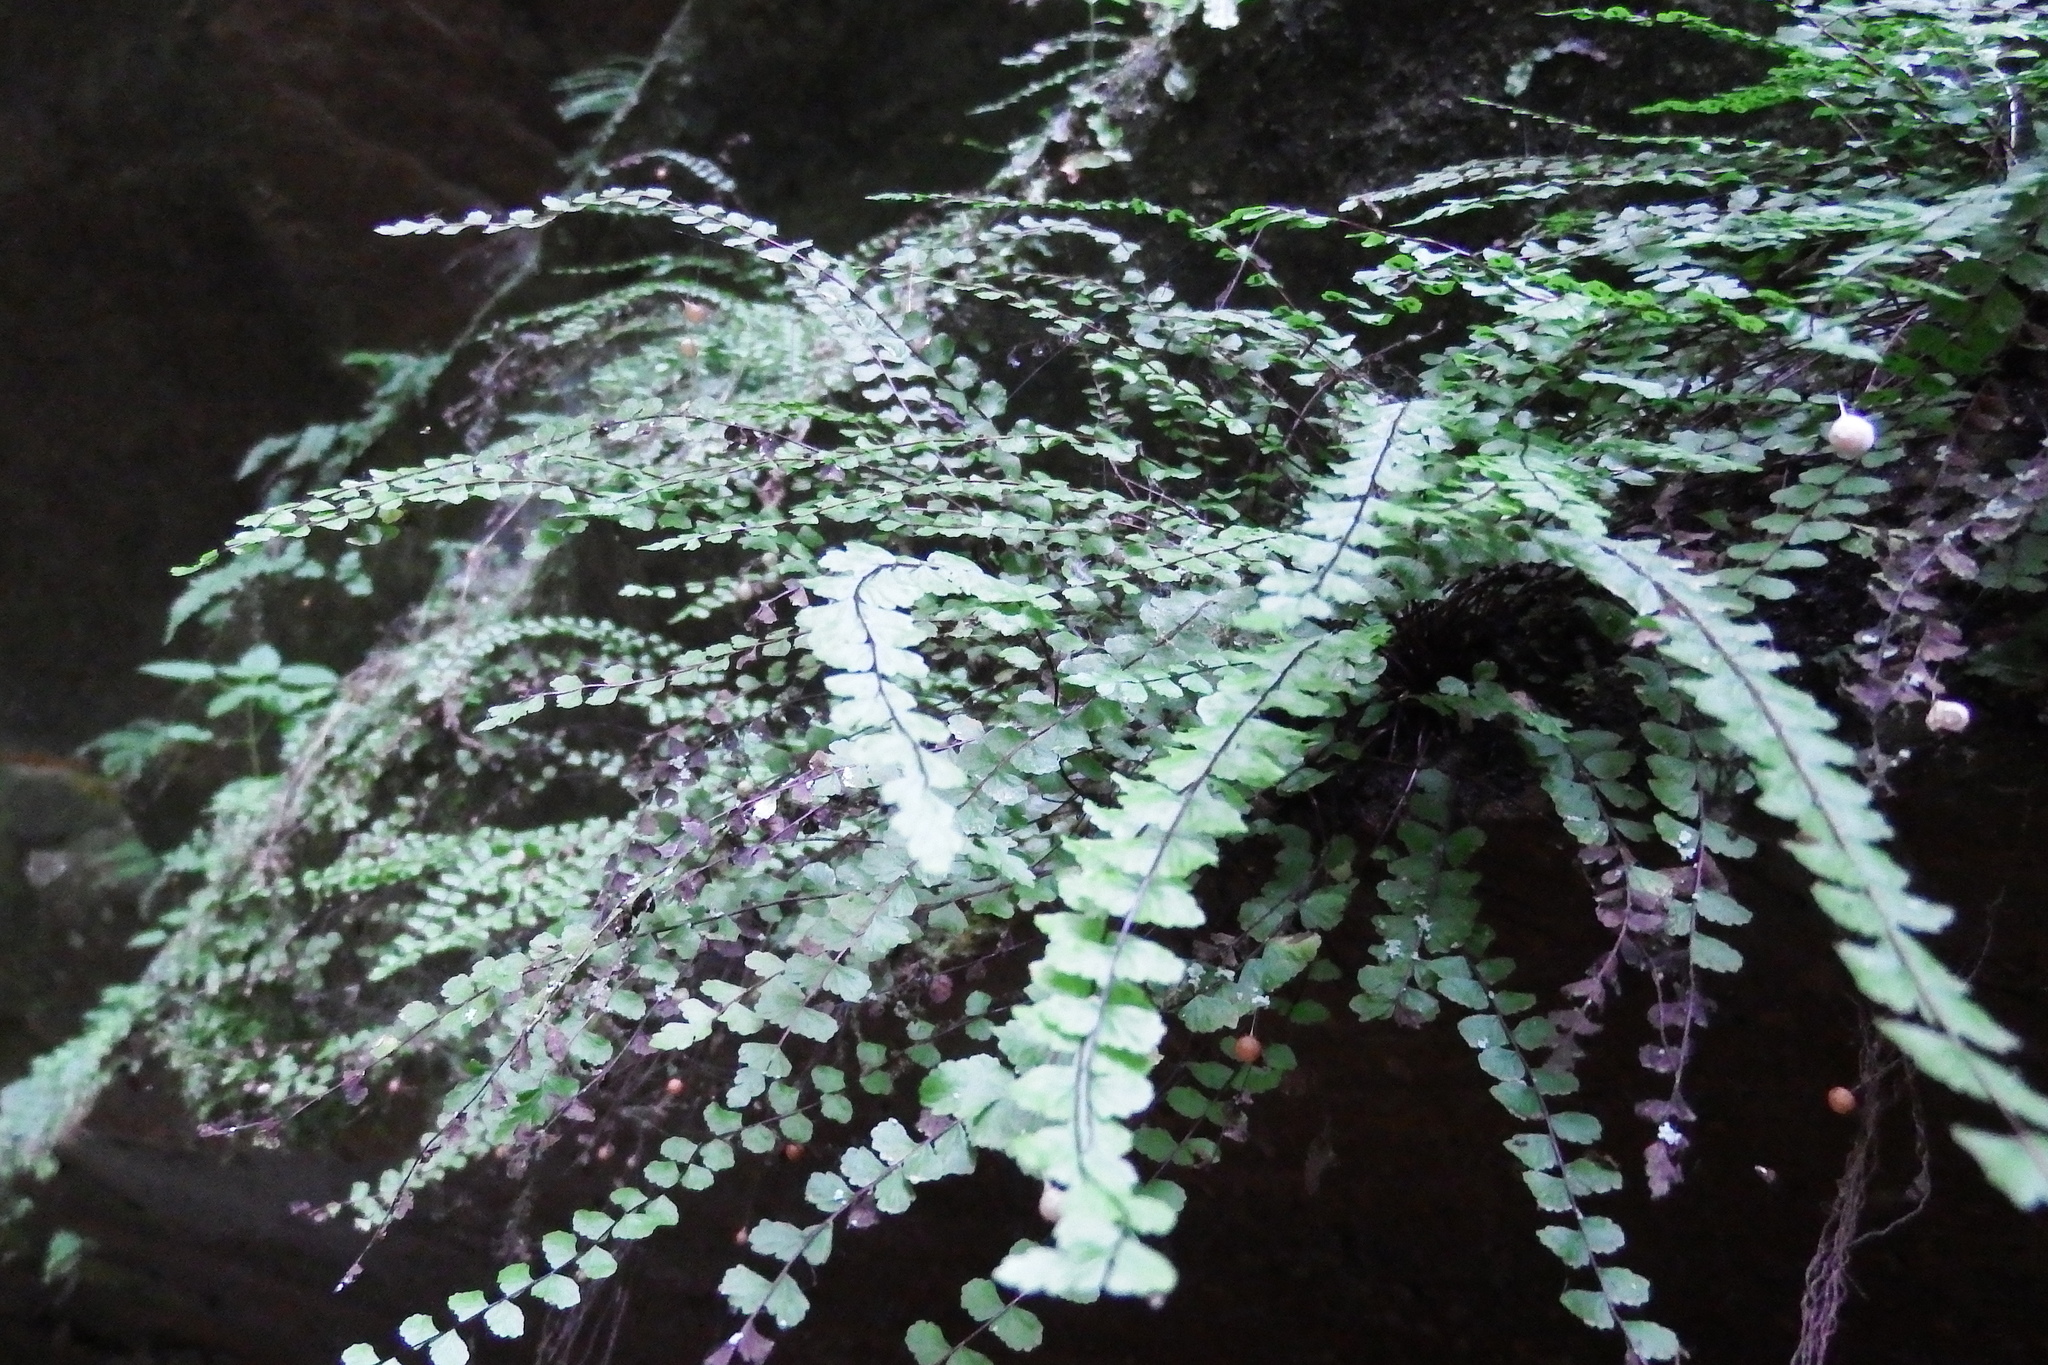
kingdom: Plantae
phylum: Tracheophyta
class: Polypodiopsida
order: Polypodiales
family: Aspleniaceae
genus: Asplenium
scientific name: Asplenium trichomanes
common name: Maidenhair spleenwort
